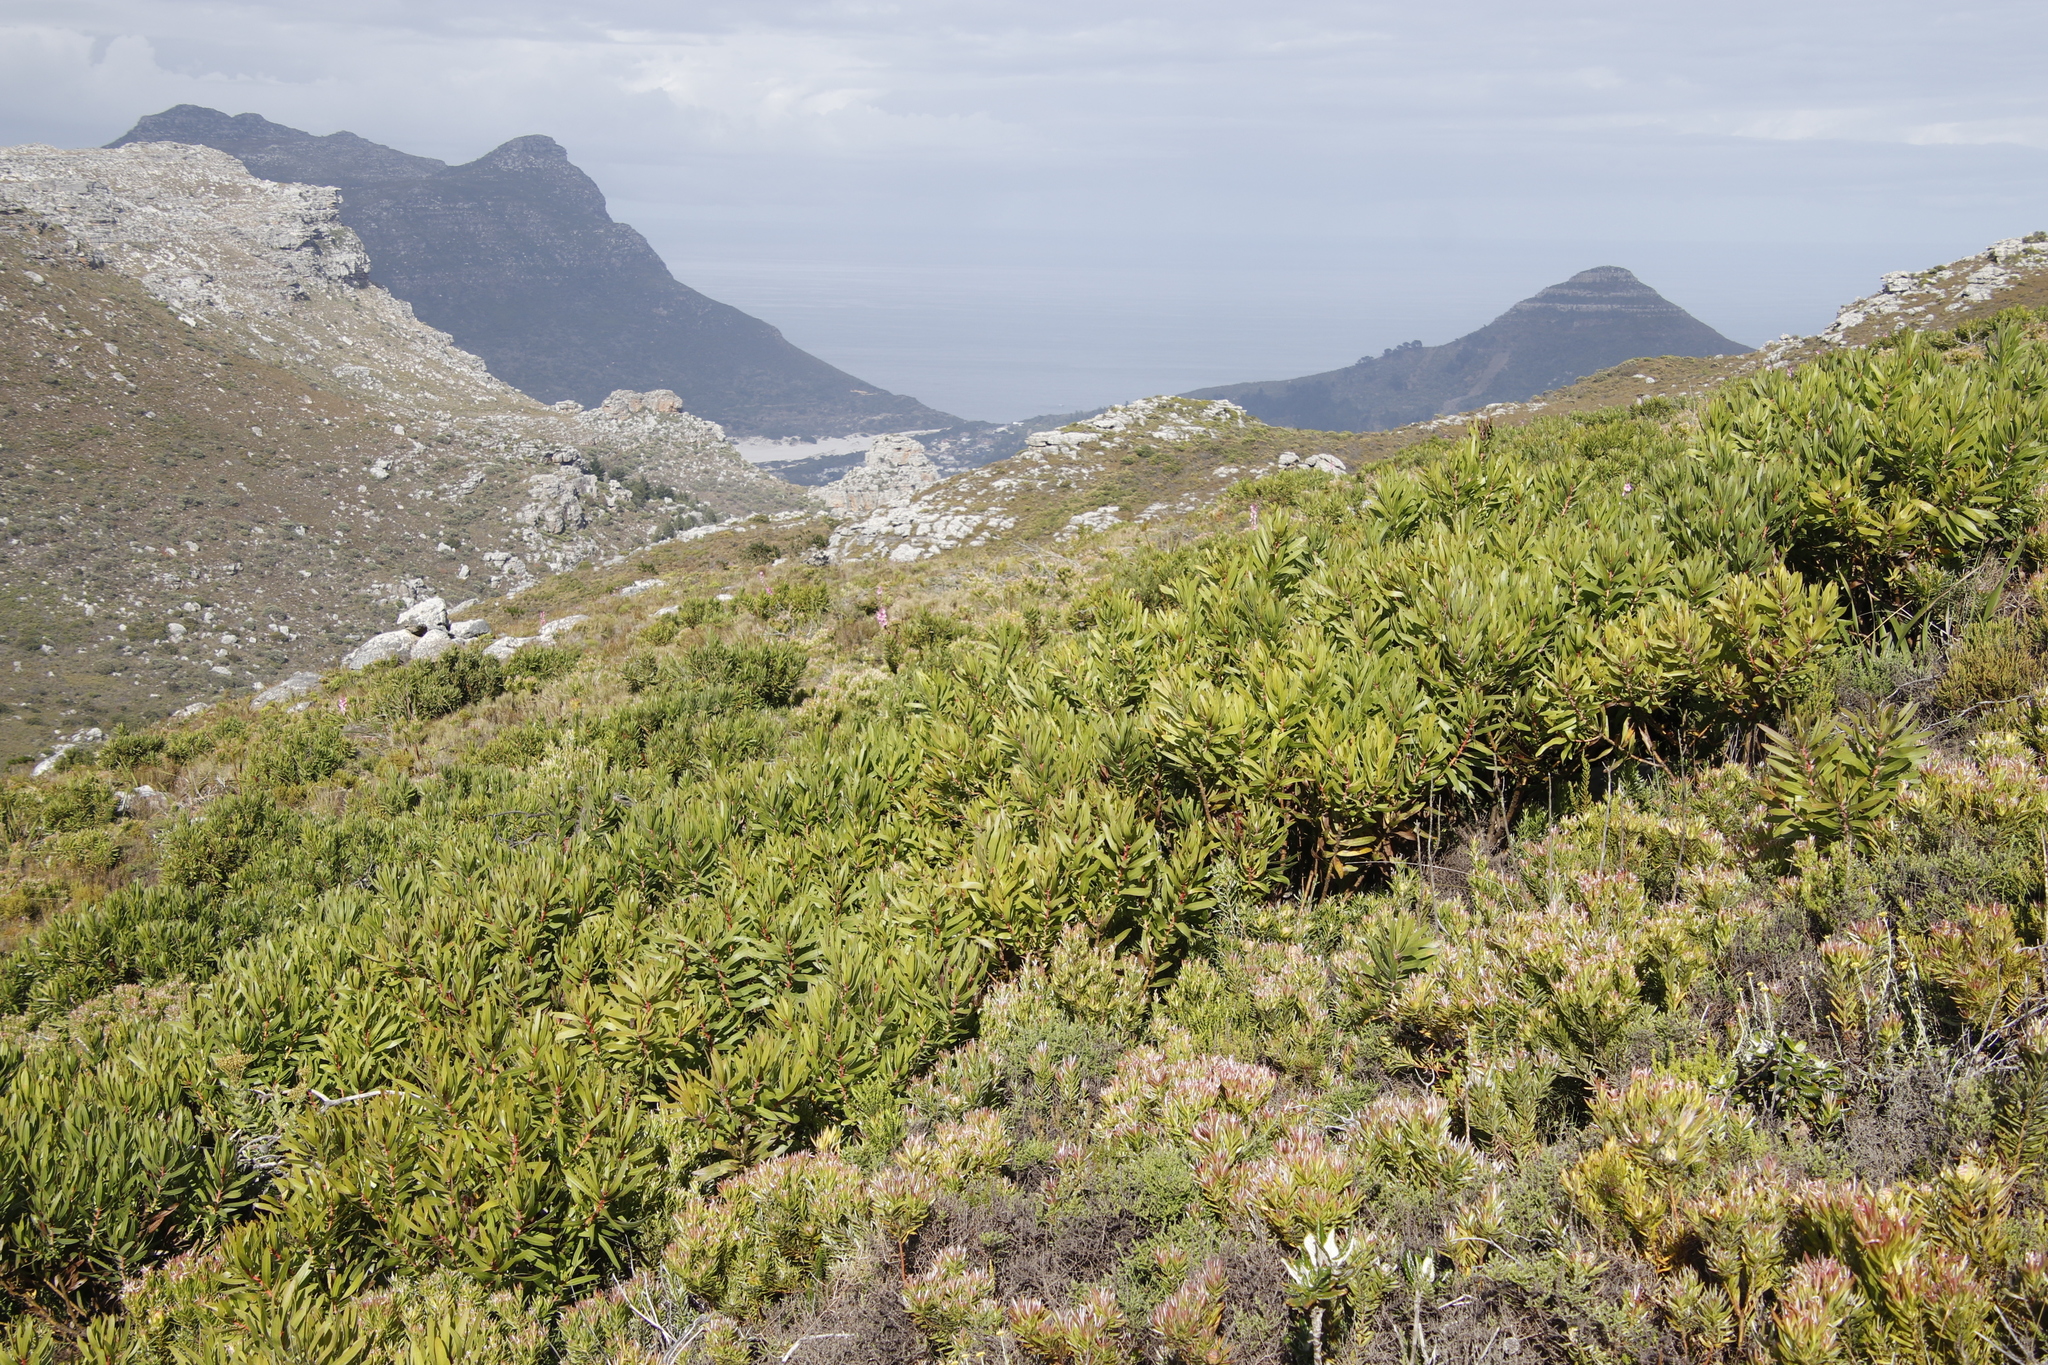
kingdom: Plantae
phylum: Tracheophyta
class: Magnoliopsida
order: Proteales
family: Proteaceae
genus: Protea
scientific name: Protea lepidocarpodendron
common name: Black-bearded protea
